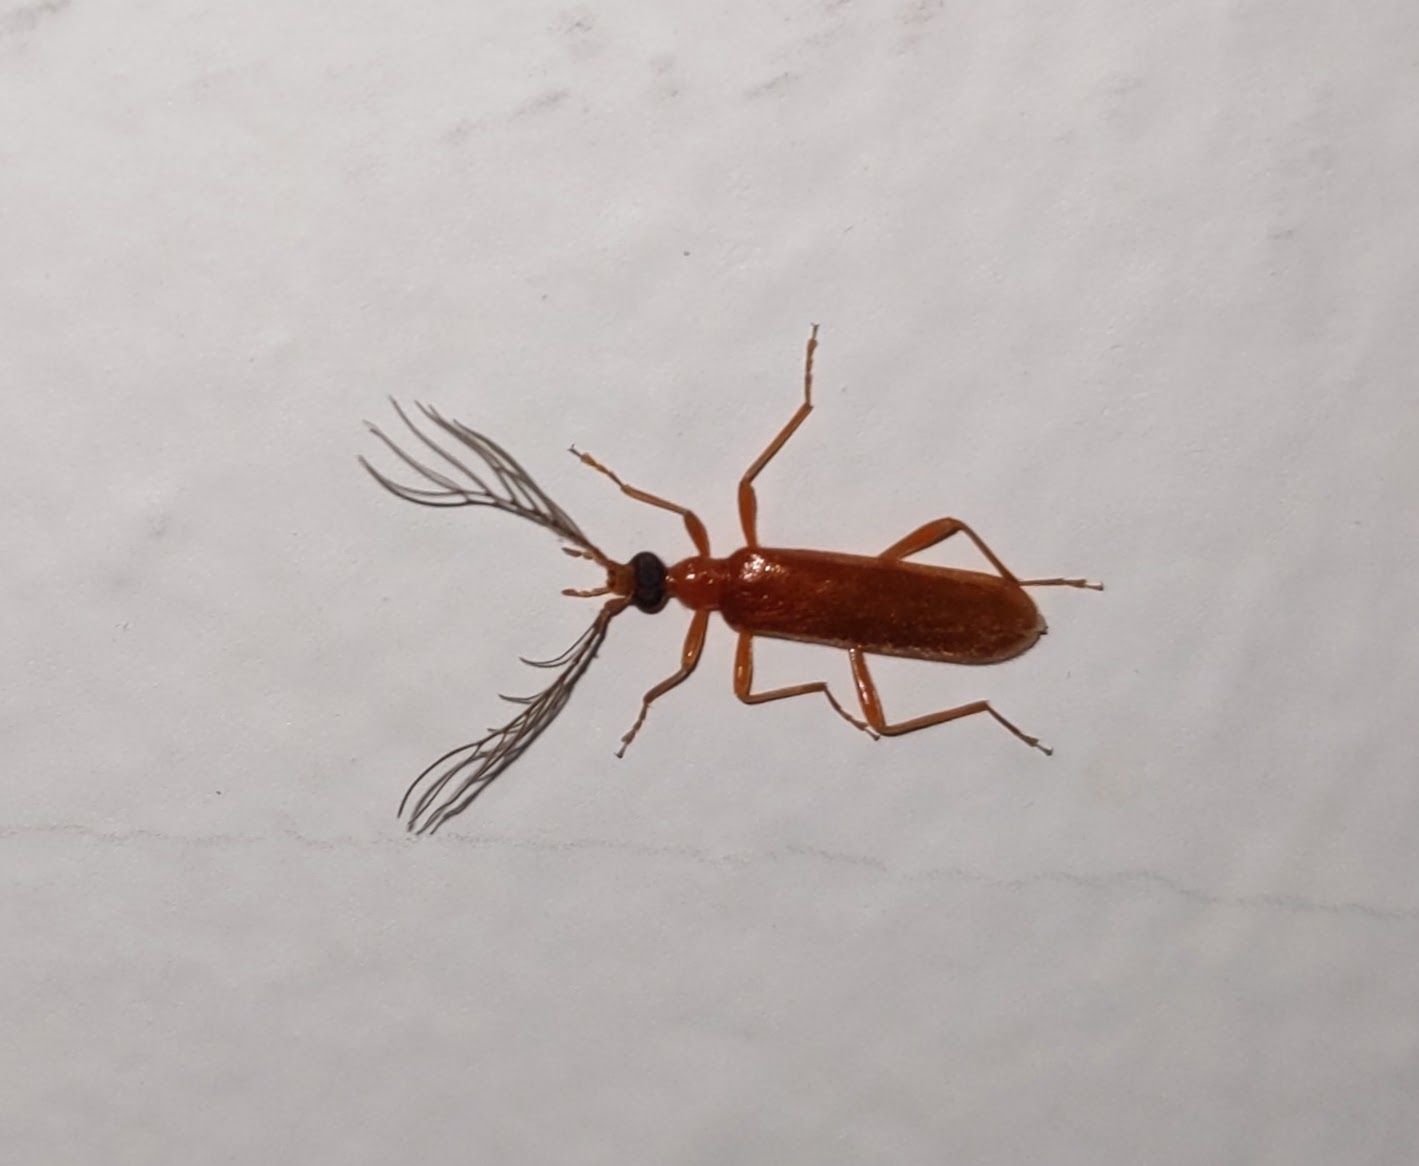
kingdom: Animalia
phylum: Arthropoda
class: Insecta
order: Coleoptera
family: Pyrochroidae
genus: Dendroides
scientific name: Dendroides concolor
